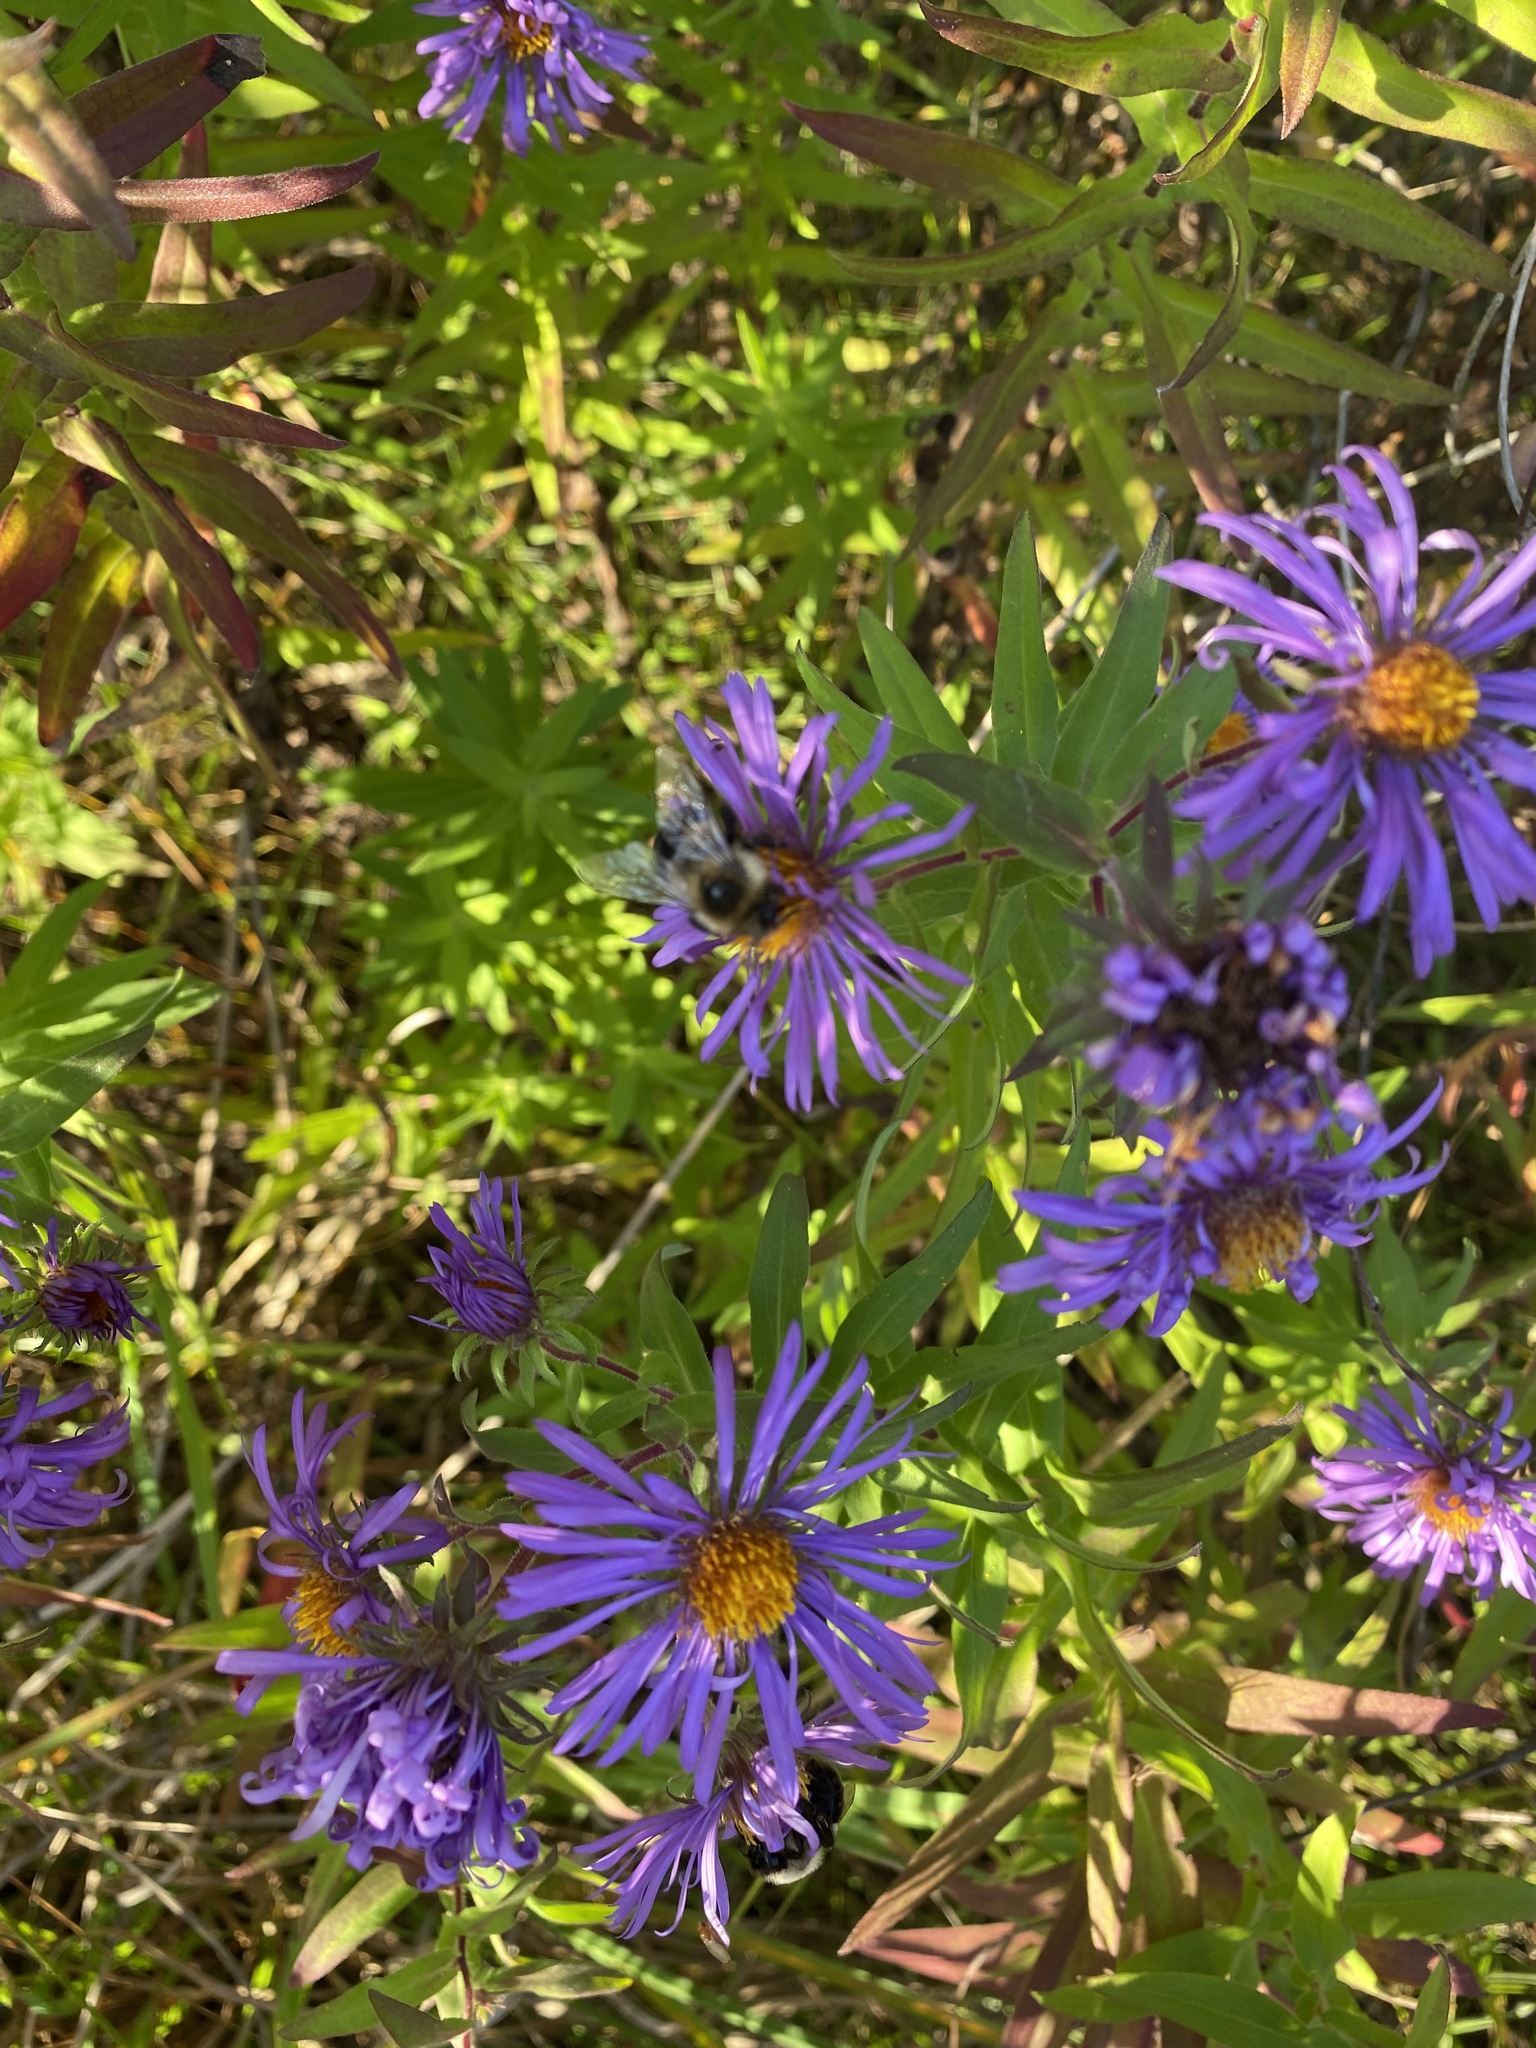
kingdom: Plantae
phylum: Tracheophyta
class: Magnoliopsida
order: Asterales
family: Asteraceae
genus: Symphyotrichum
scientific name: Symphyotrichum novae-angliae
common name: Michaelmas daisy
